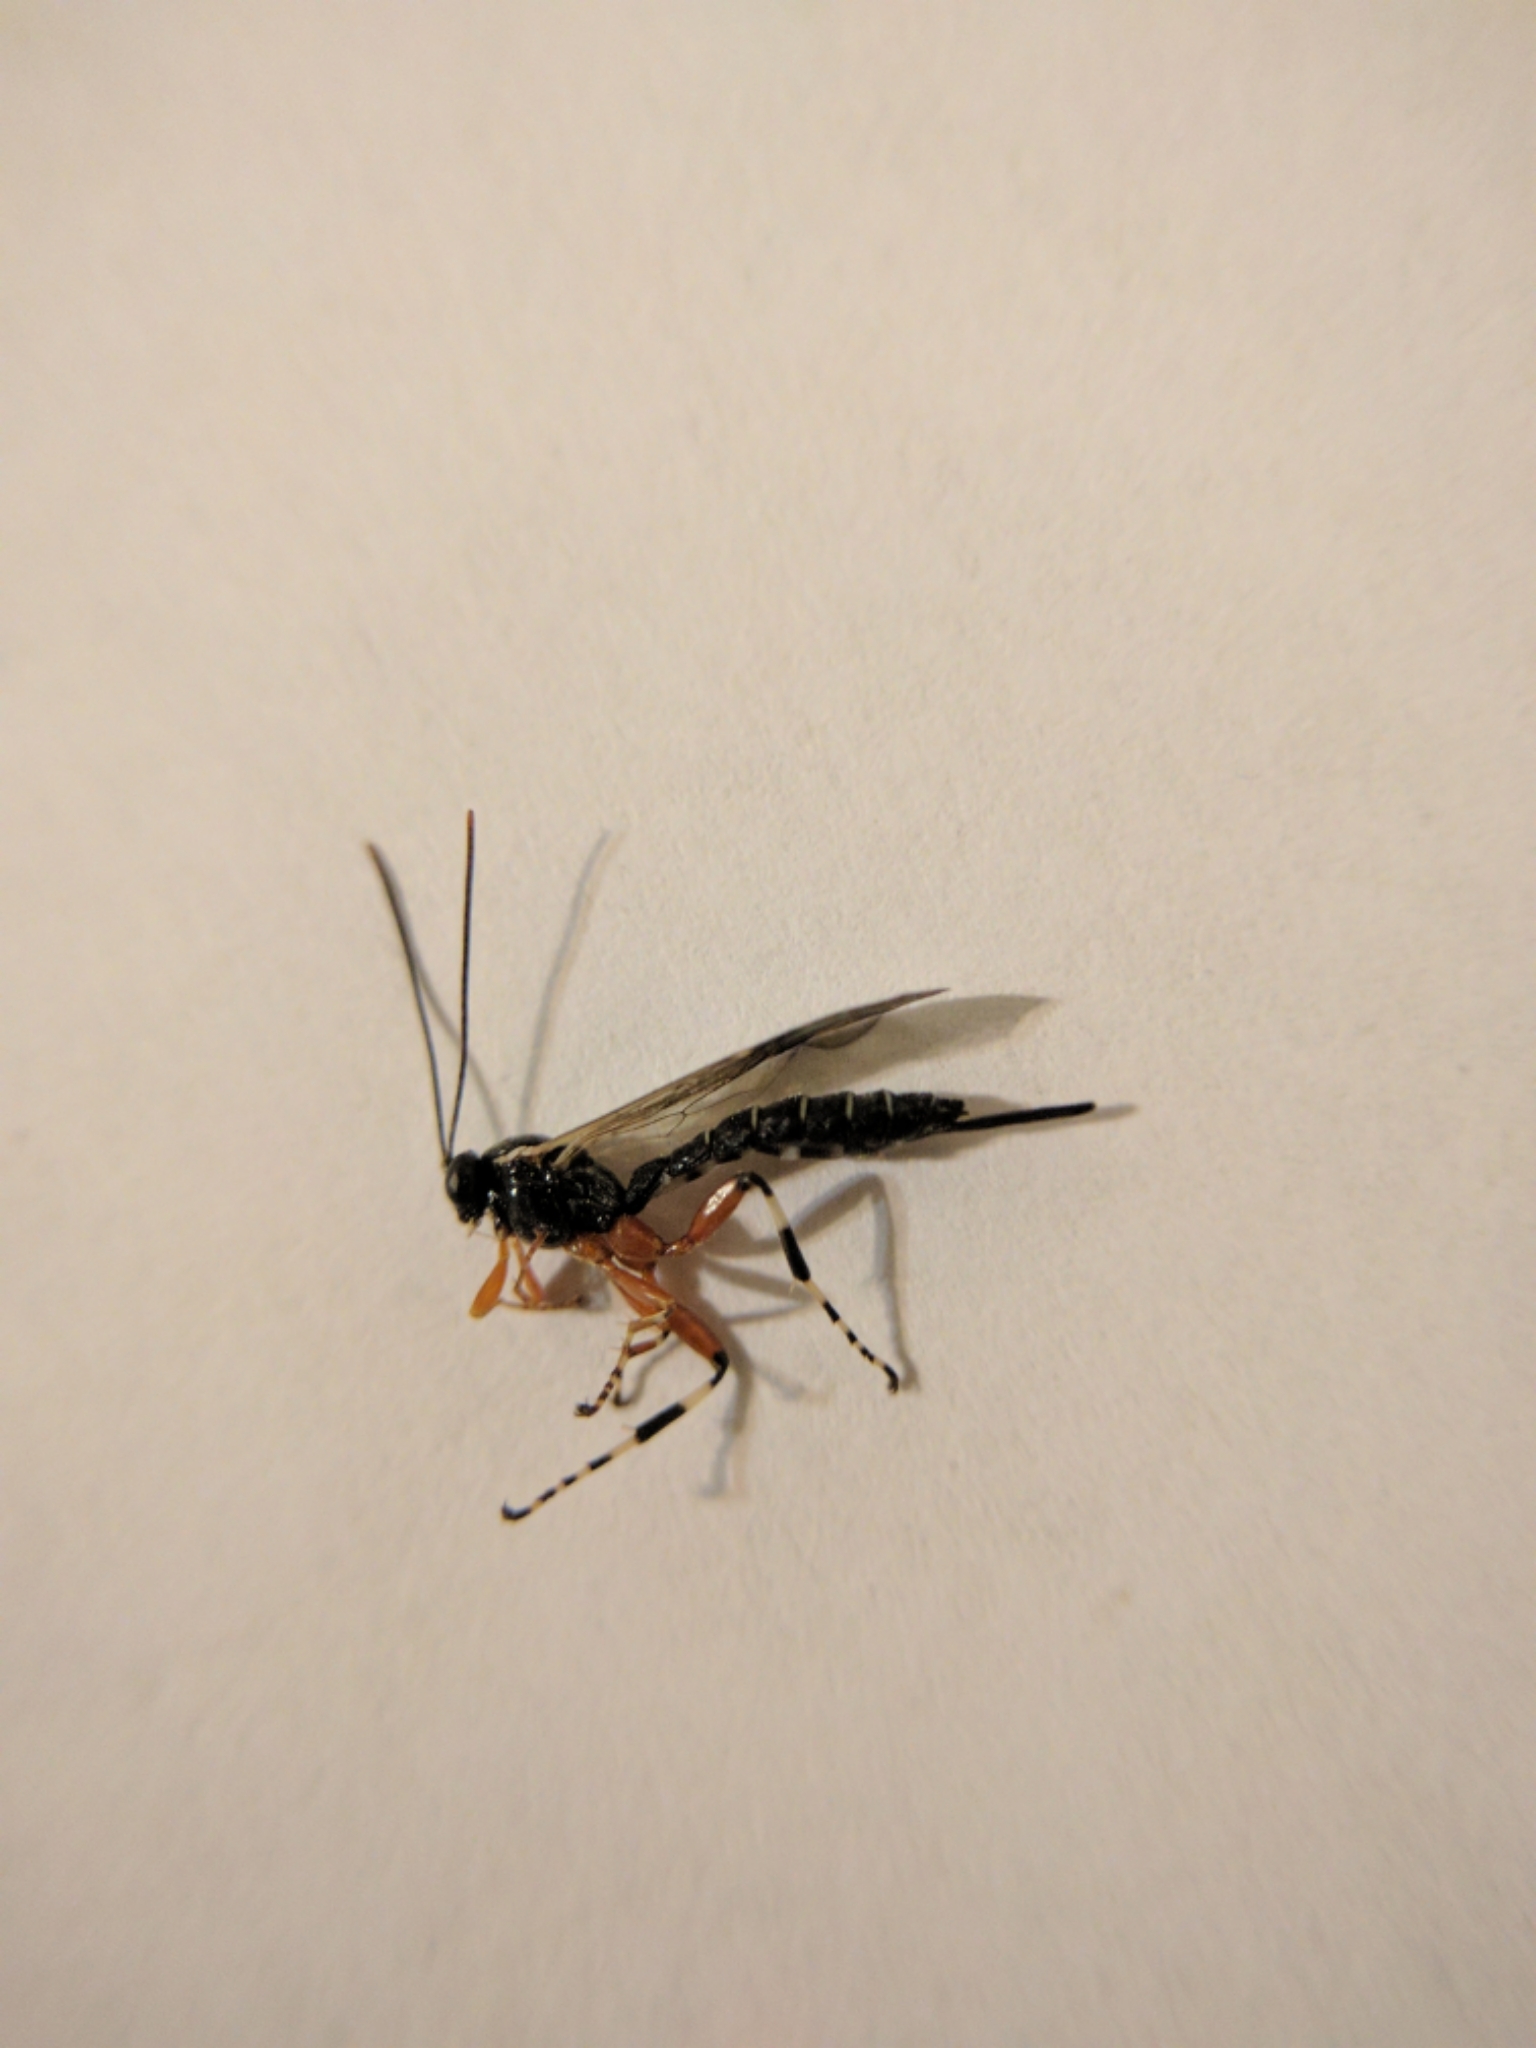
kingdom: Animalia
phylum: Arthropoda
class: Insecta
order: Hymenoptera
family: Ichneumonidae
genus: Itoplectis
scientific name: Itoplectis conquisitor
